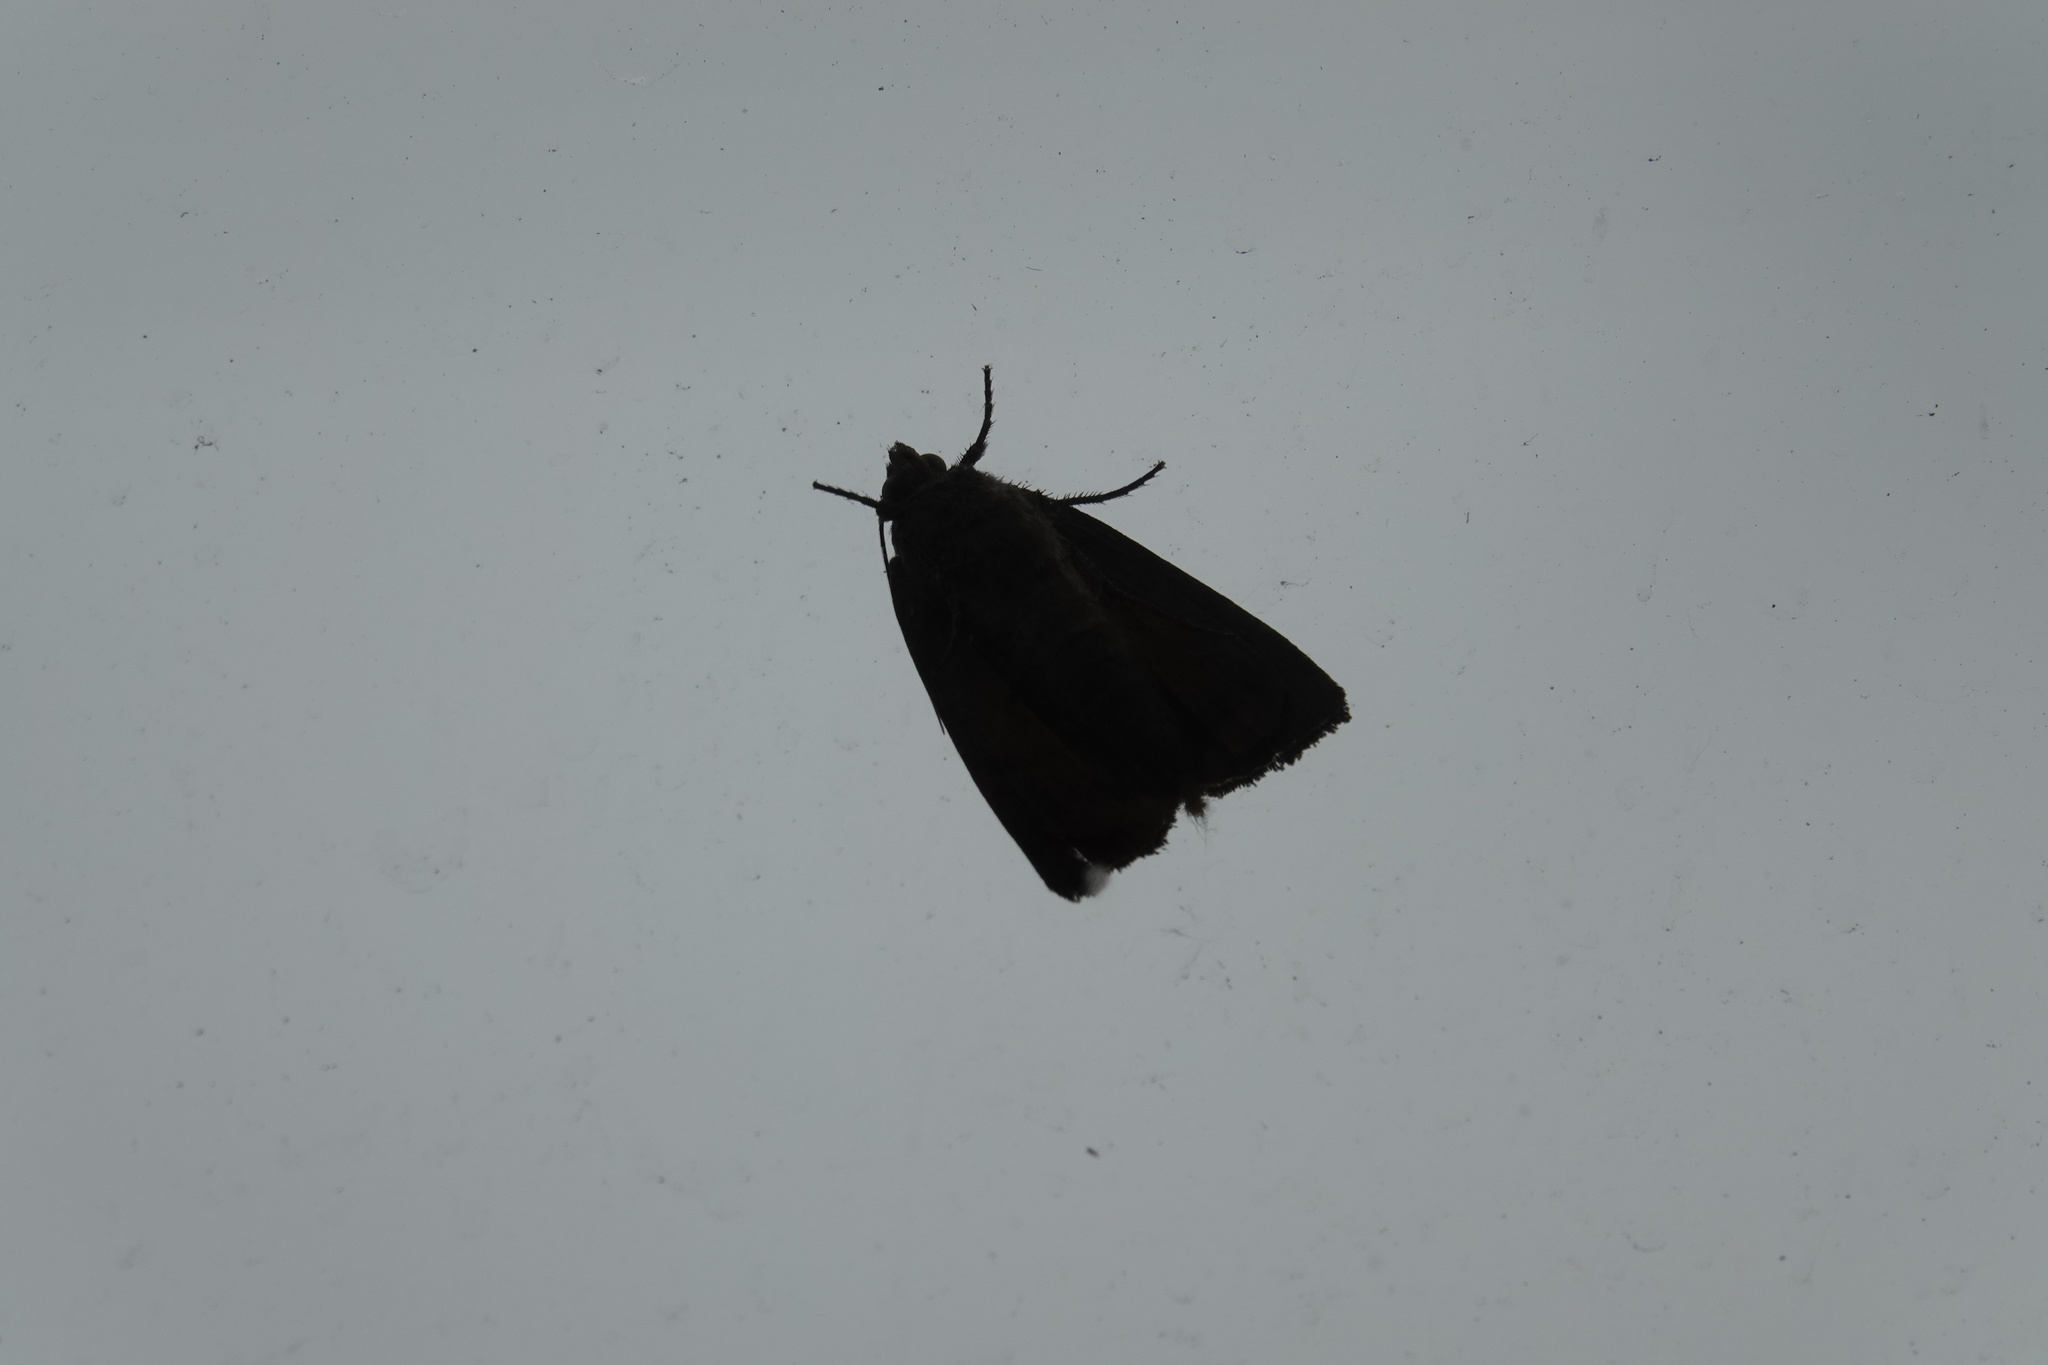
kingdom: Animalia
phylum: Arthropoda
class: Insecta
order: Lepidoptera
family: Noctuidae
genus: Noctua
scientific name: Noctua comes
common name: Lesser yellow underwing
